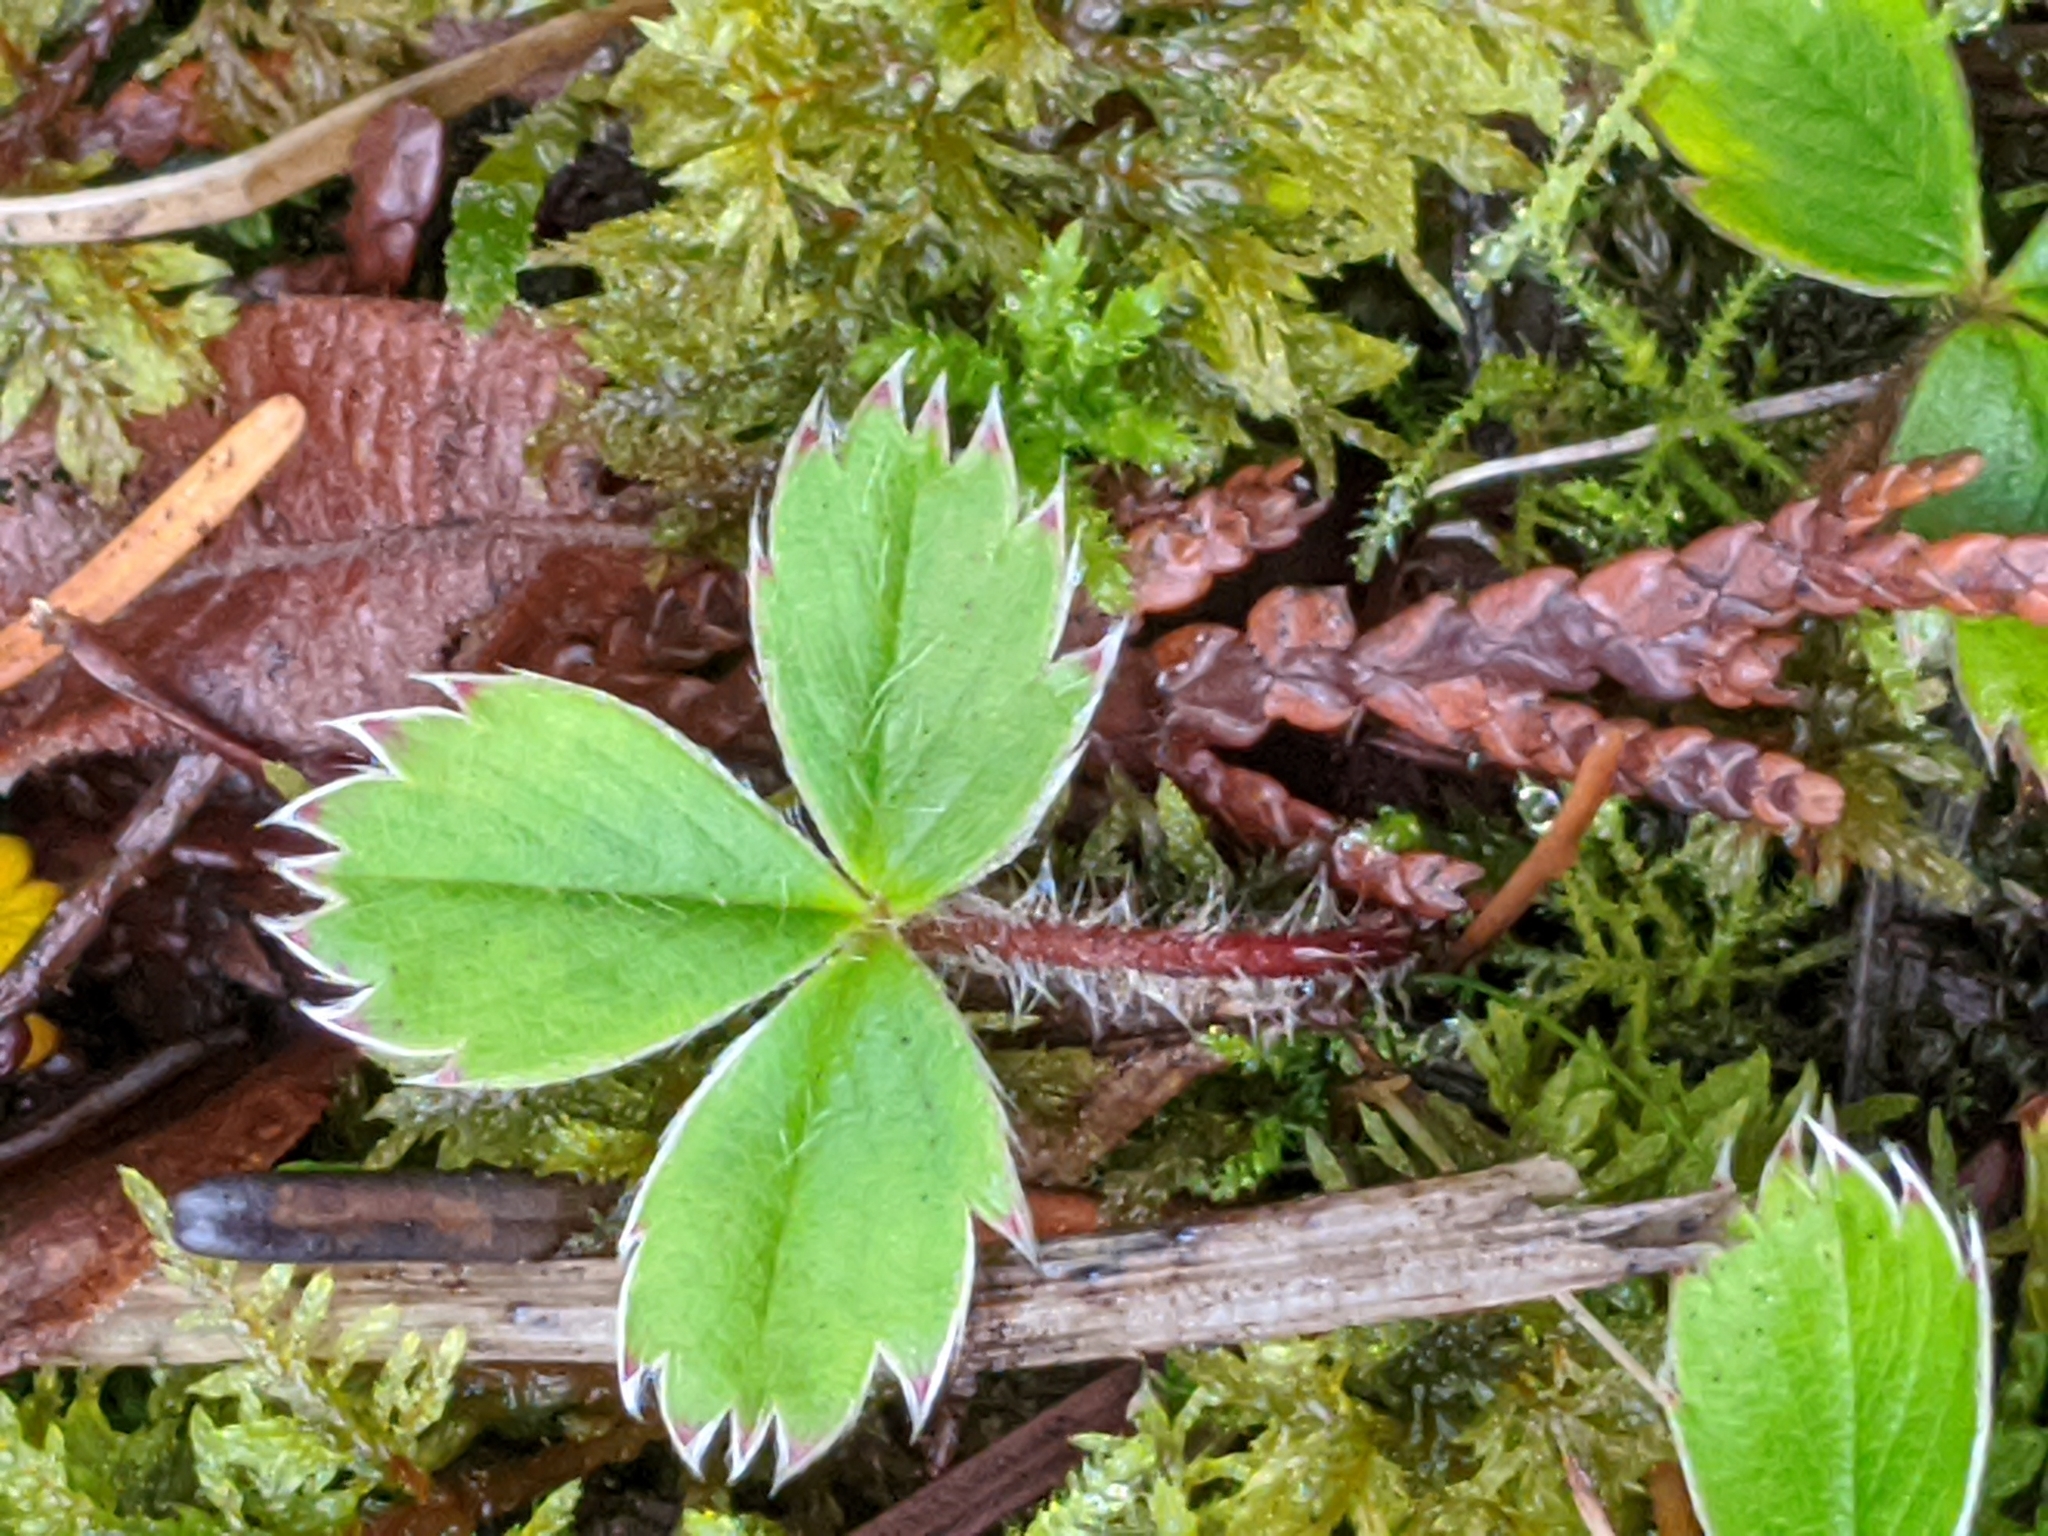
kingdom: Plantae
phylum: Tracheophyta
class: Magnoliopsida
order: Rosales
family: Rosaceae
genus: Fragaria
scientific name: Fragaria virginiana
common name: Thickleaved wild strawberry
